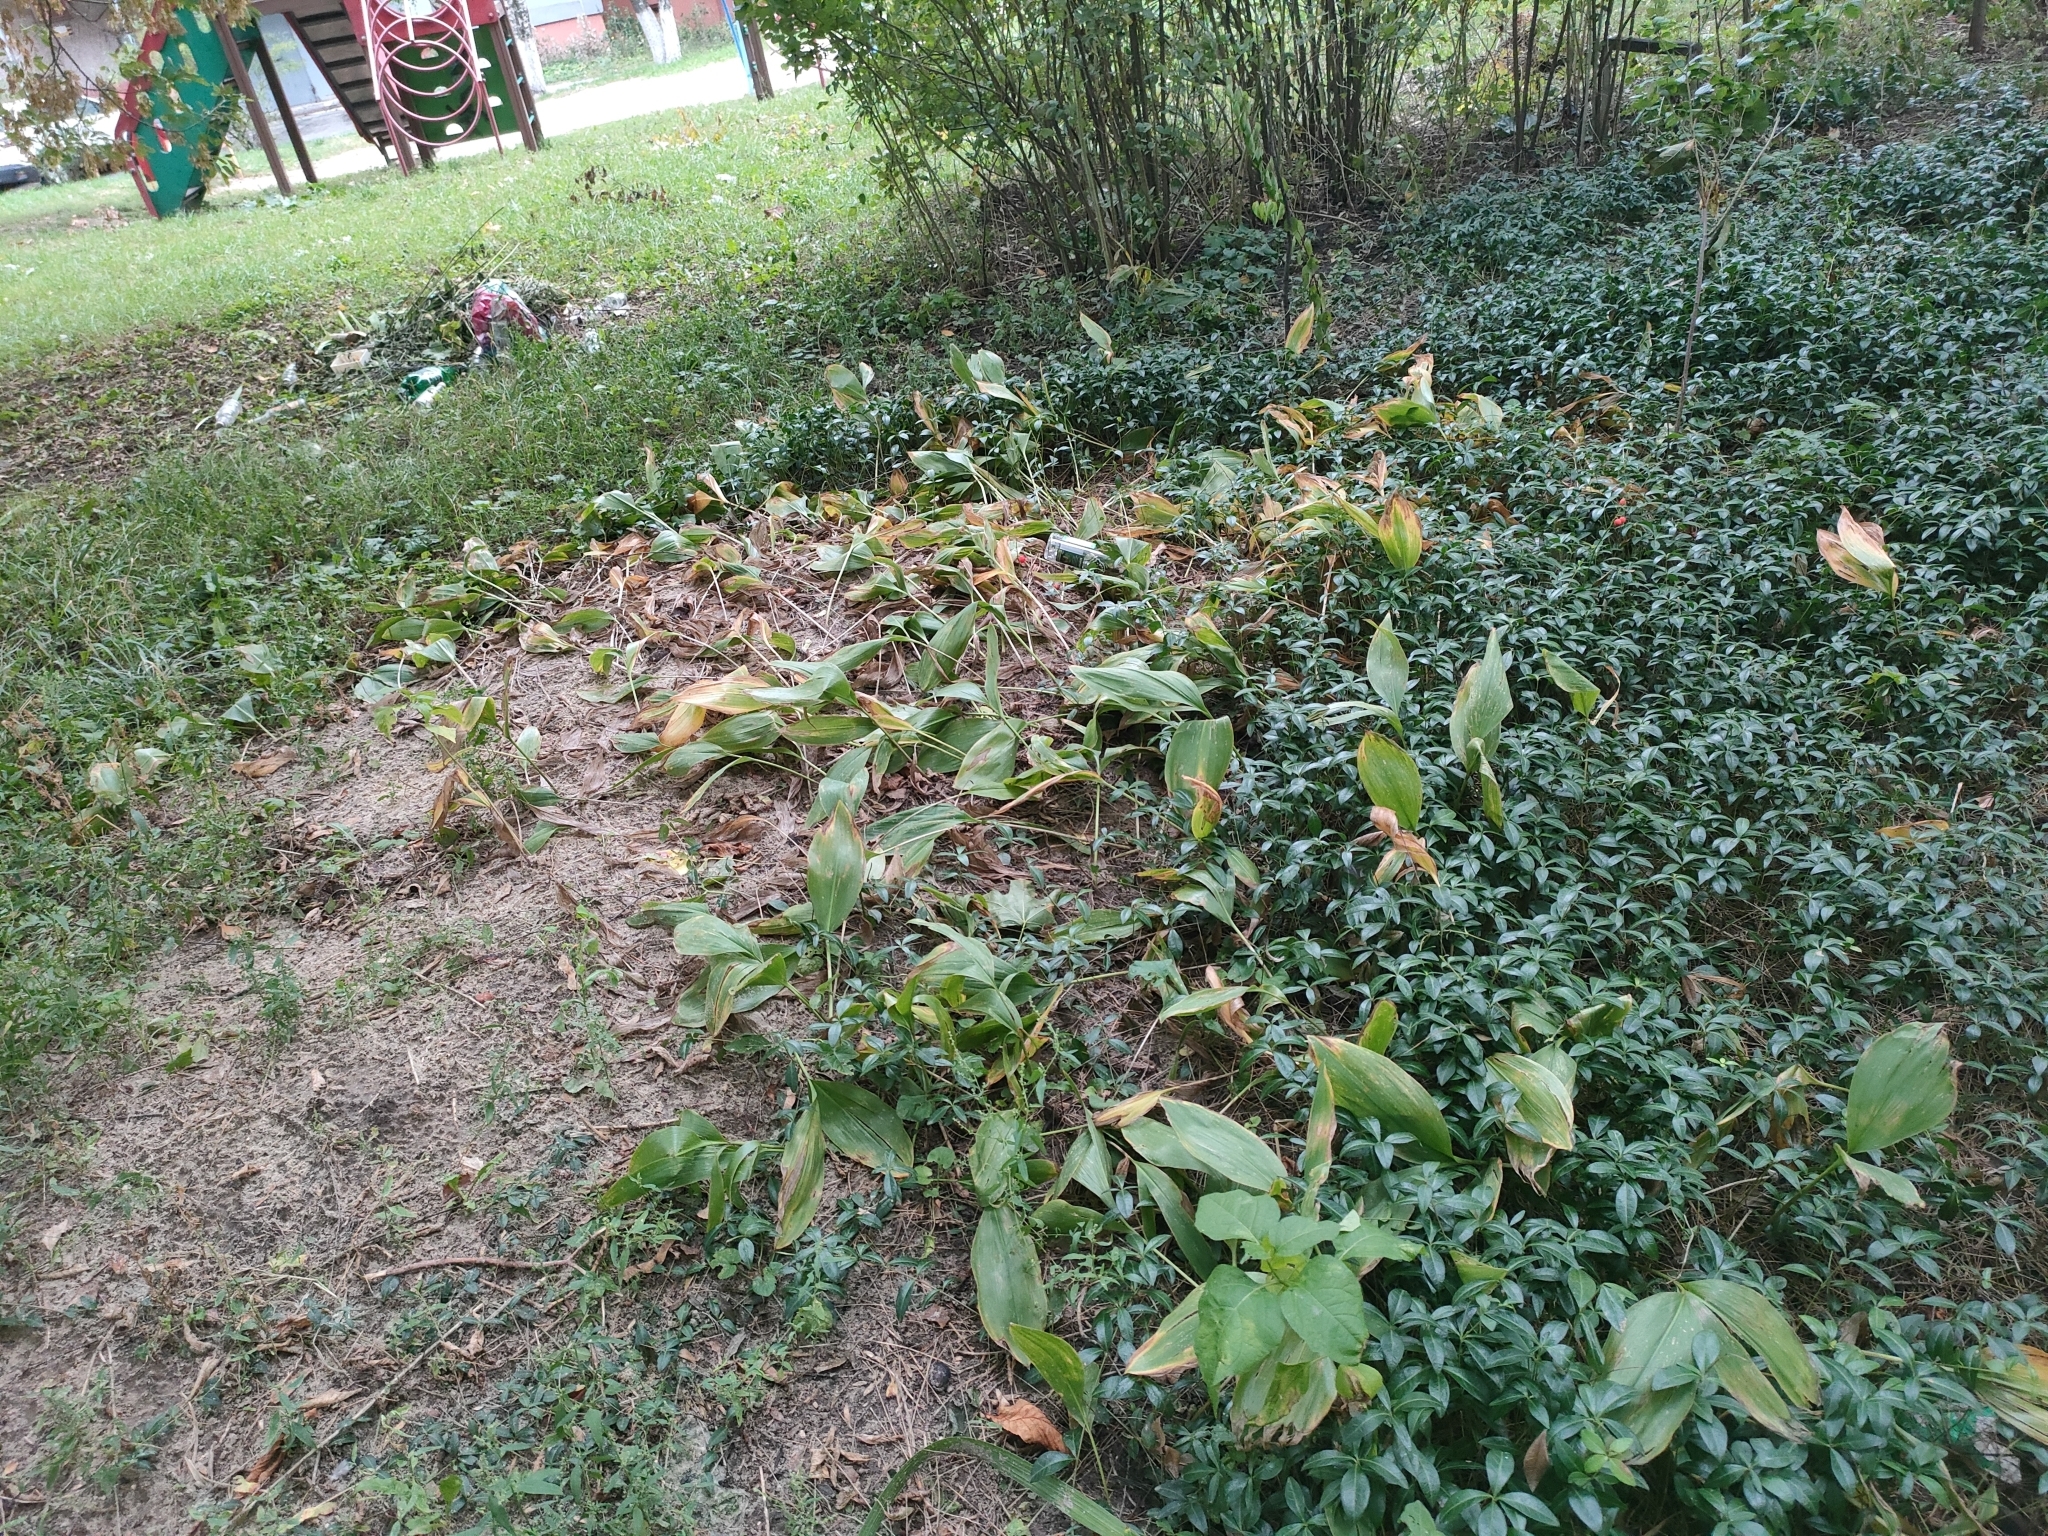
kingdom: Plantae
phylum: Tracheophyta
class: Liliopsida
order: Asparagales
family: Asparagaceae
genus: Convallaria
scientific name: Convallaria majalis
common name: Lily-of-the-valley
